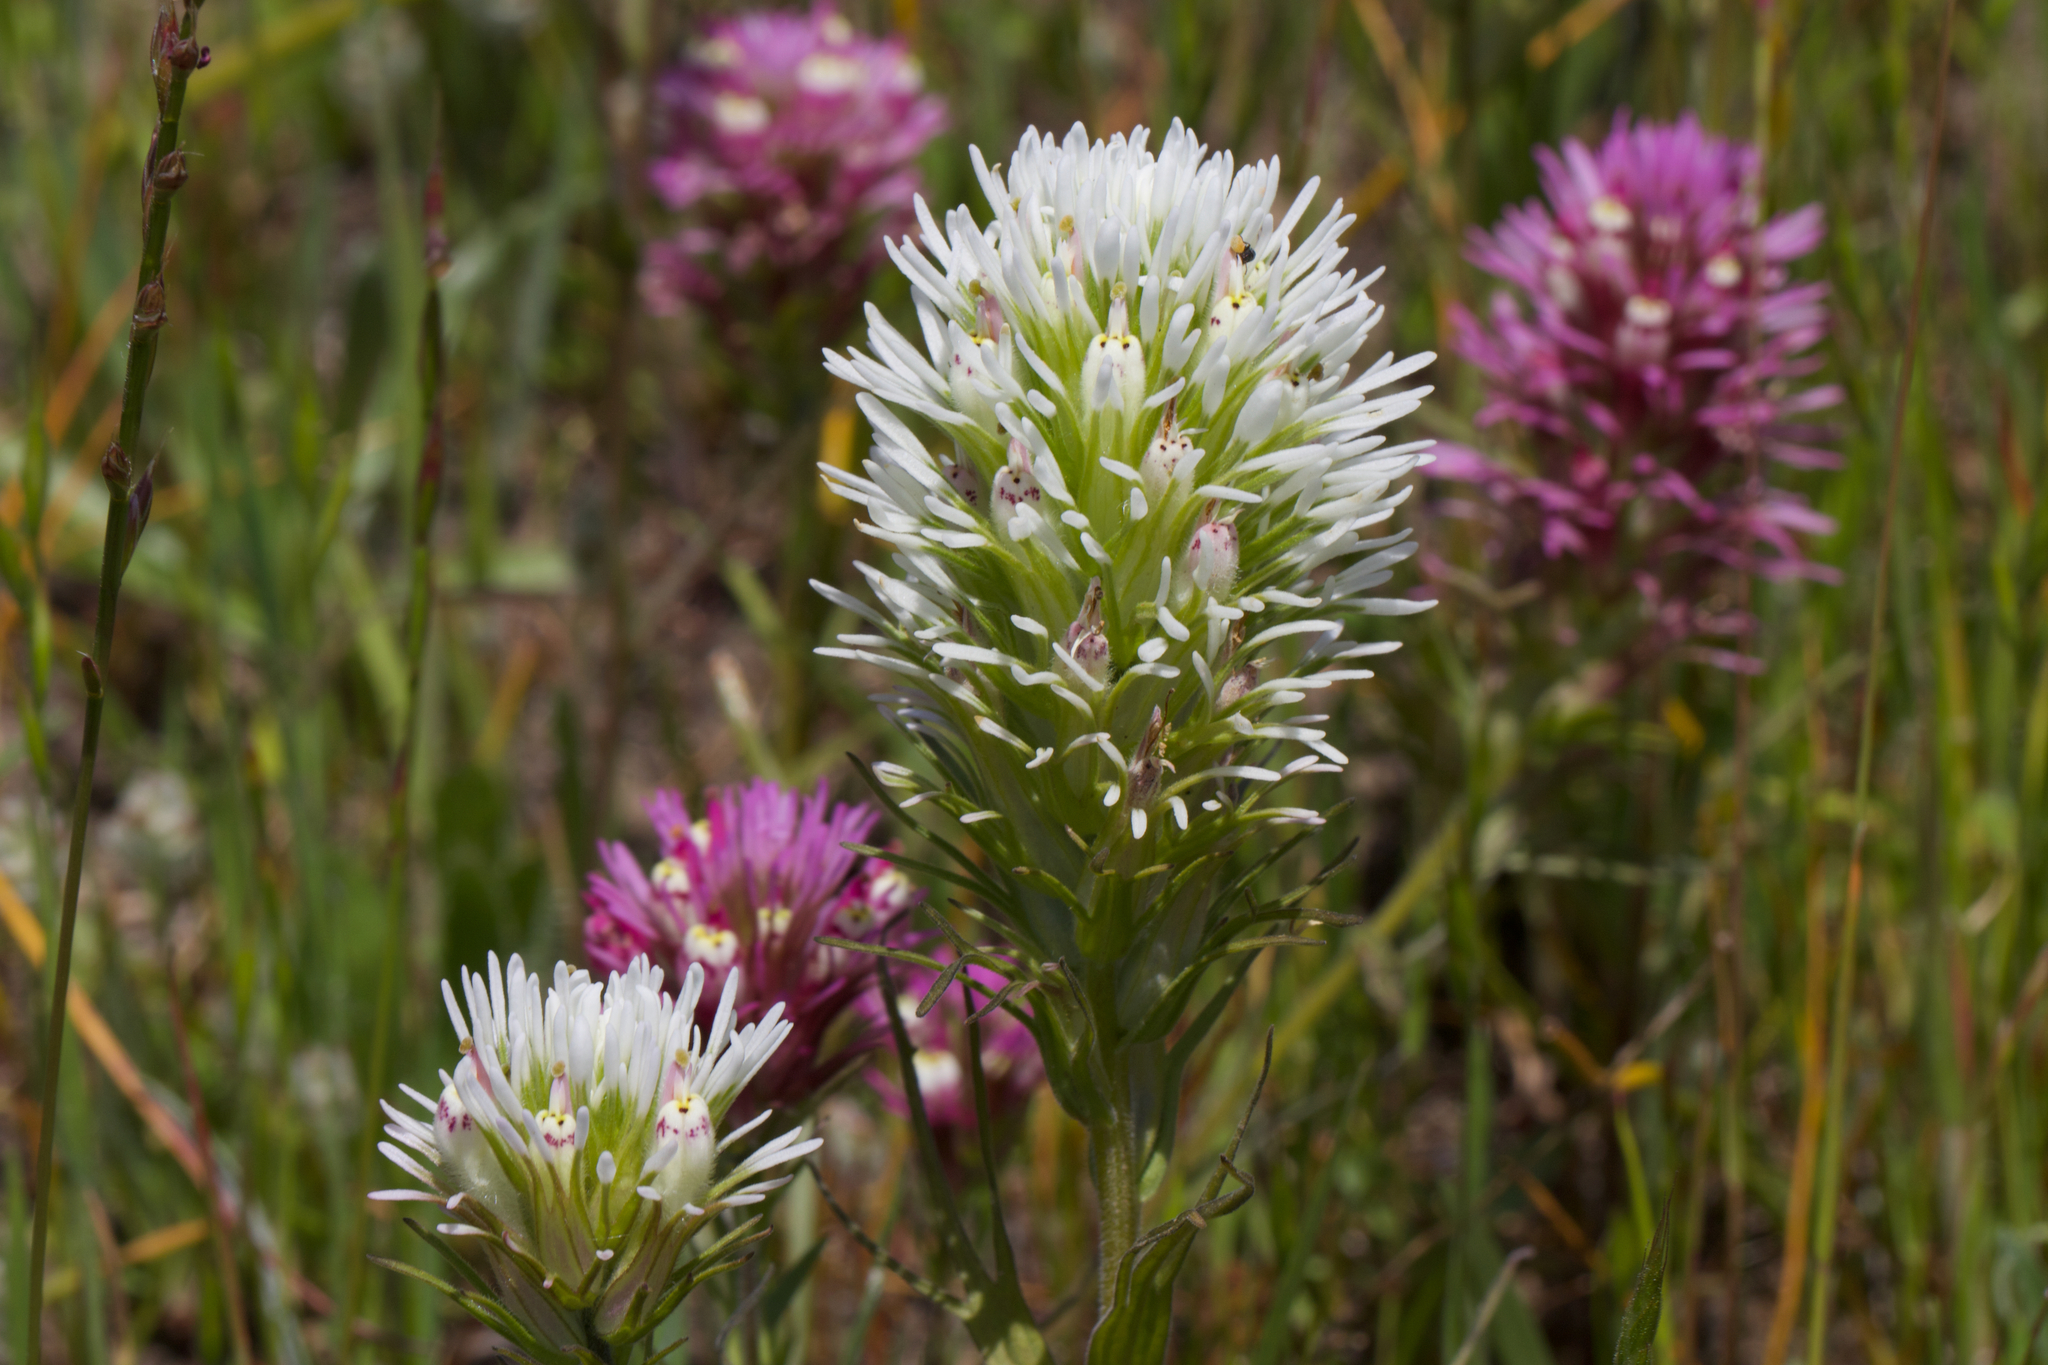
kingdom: Plantae
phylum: Tracheophyta
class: Magnoliopsida
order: Lamiales
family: Orobanchaceae
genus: Castilleja
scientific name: Castilleja densiflora
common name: Dense-flower indian paintbrush
